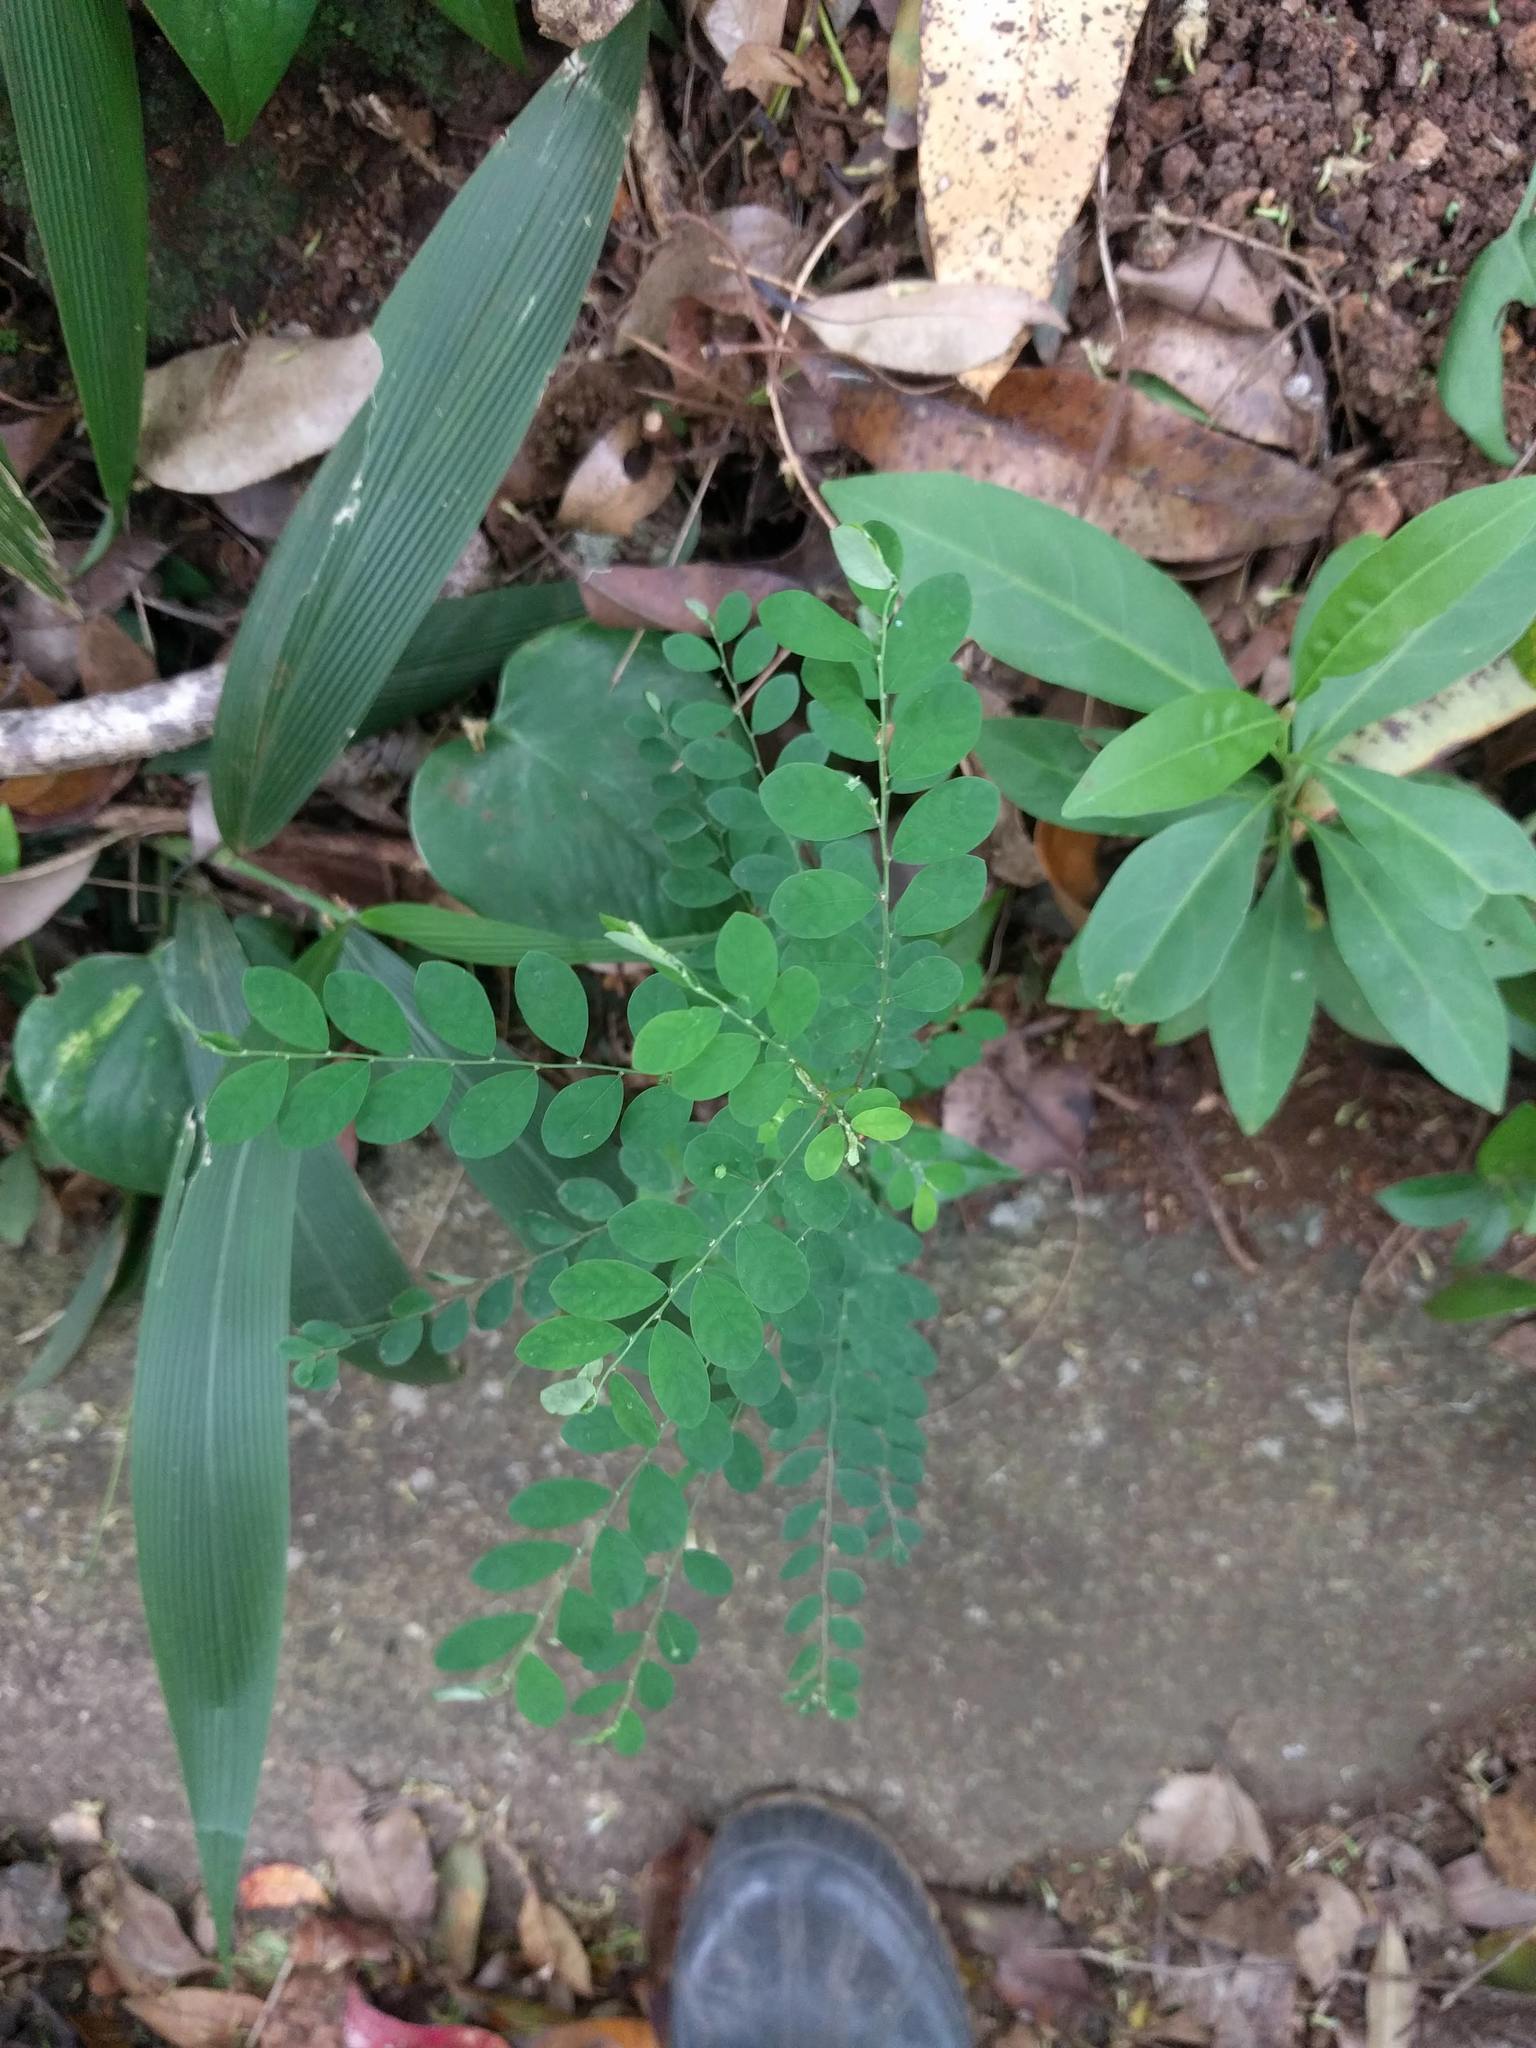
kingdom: Plantae
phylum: Tracheophyta
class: Magnoliopsida
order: Malpighiales
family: Phyllanthaceae
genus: Phyllanthus
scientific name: Phyllanthus tenellus
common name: Mascarene island leaf-flower
